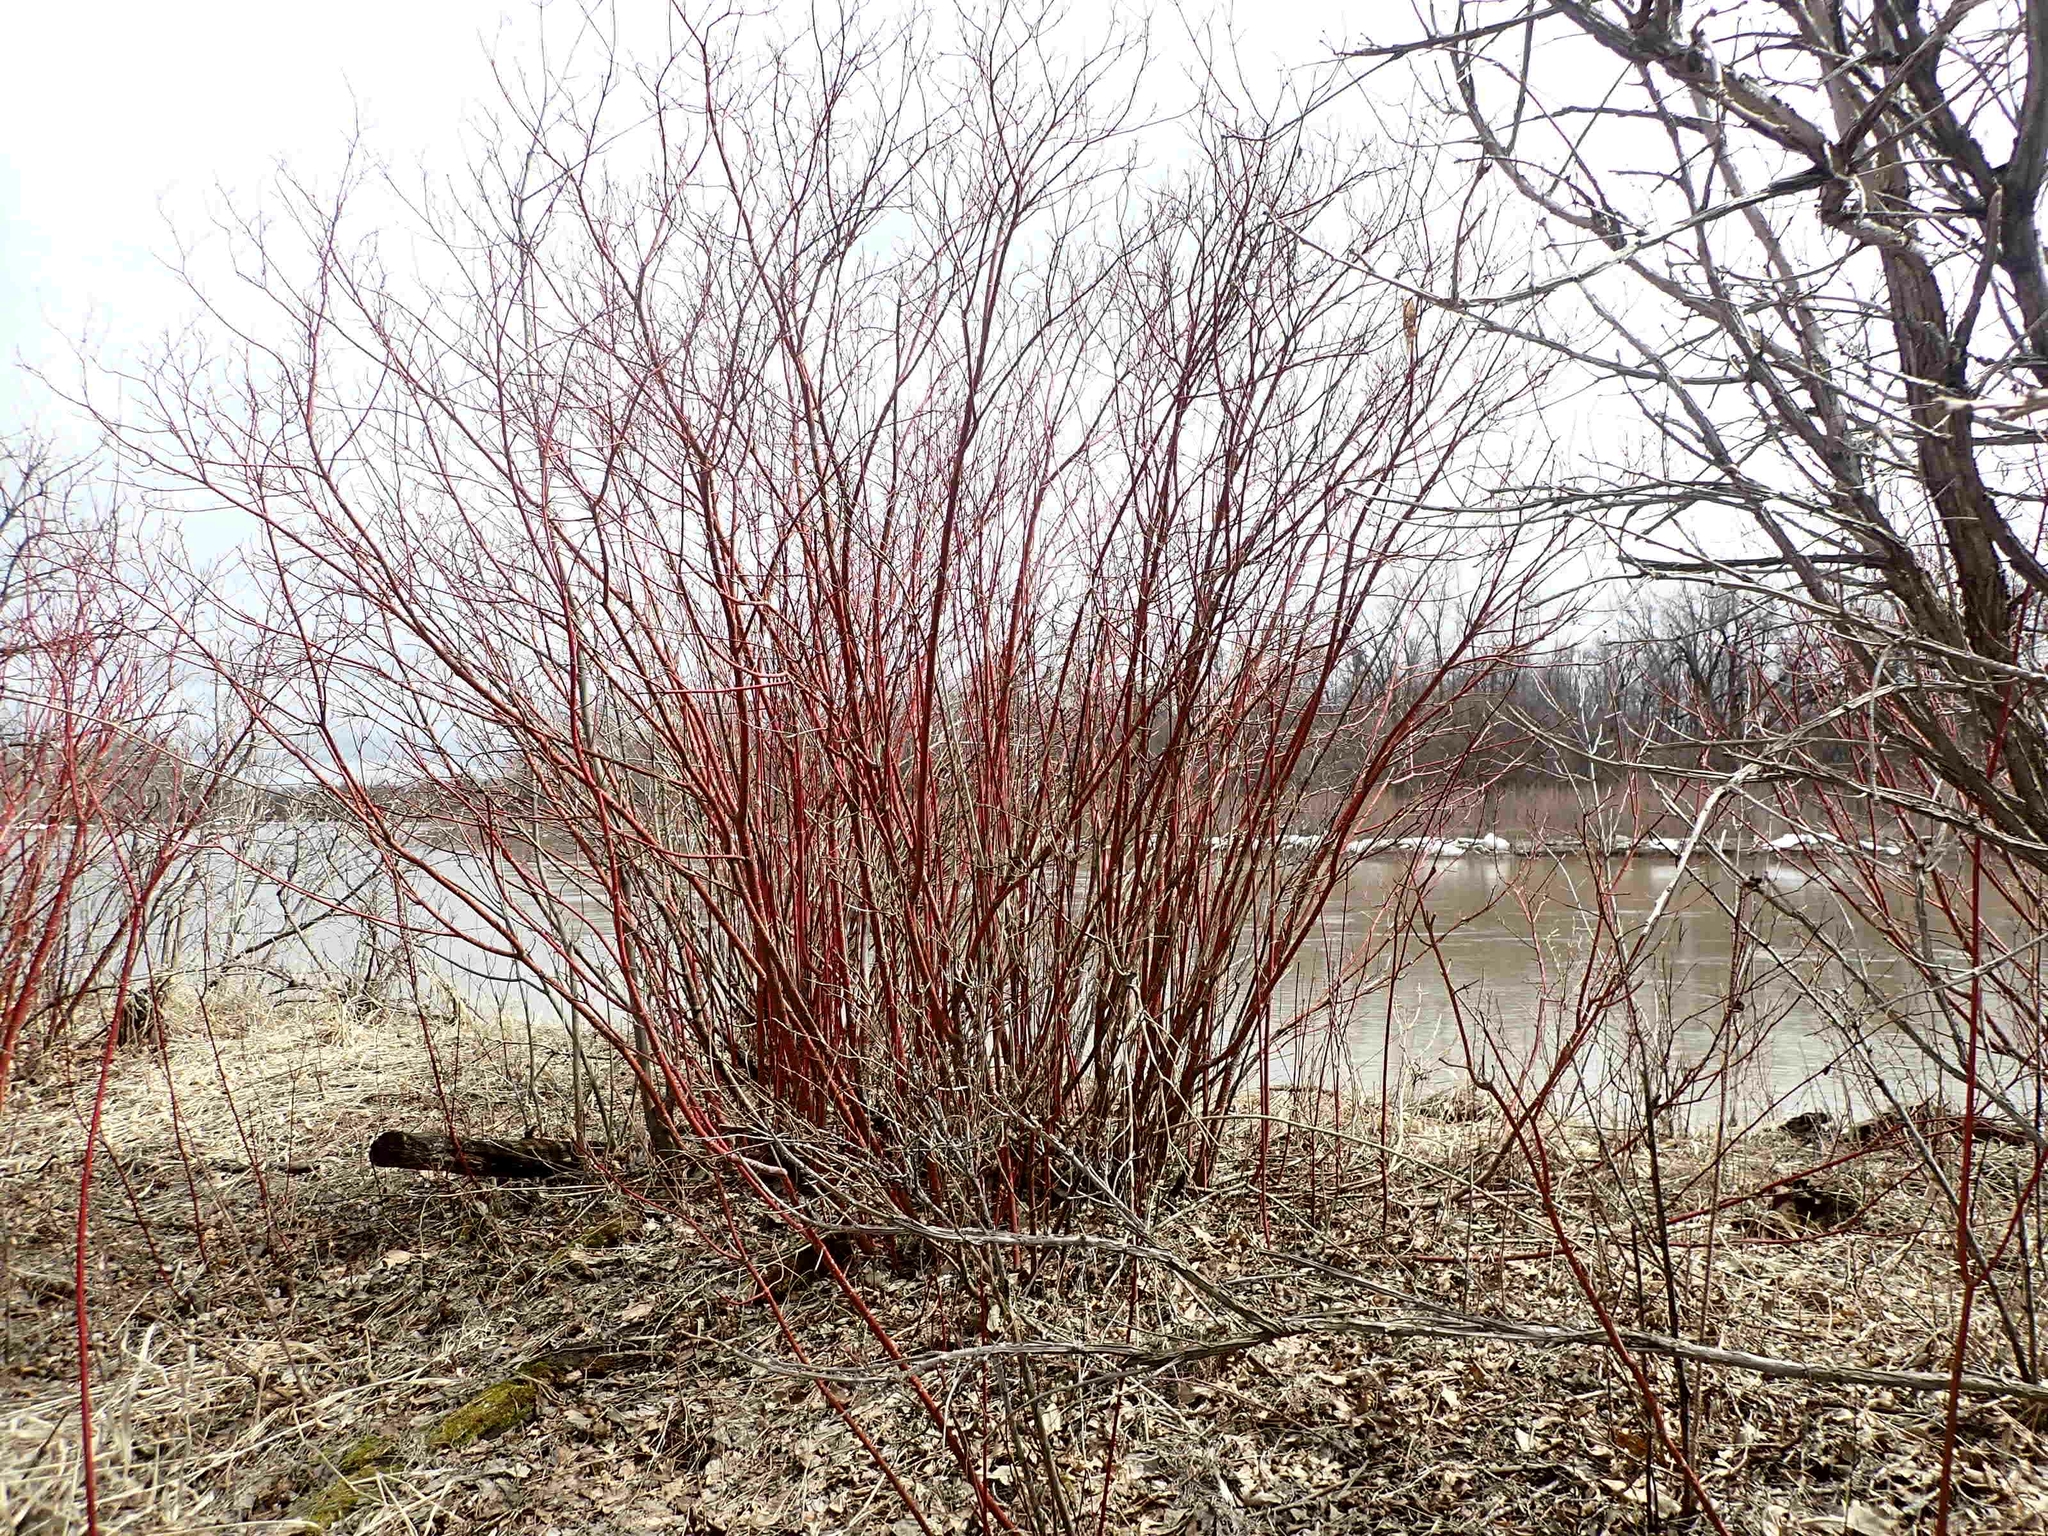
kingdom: Plantae
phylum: Tracheophyta
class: Magnoliopsida
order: Cornales
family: Cornaceae
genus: Cornus
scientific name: Cornus sericea
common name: Red-osier dogwood
